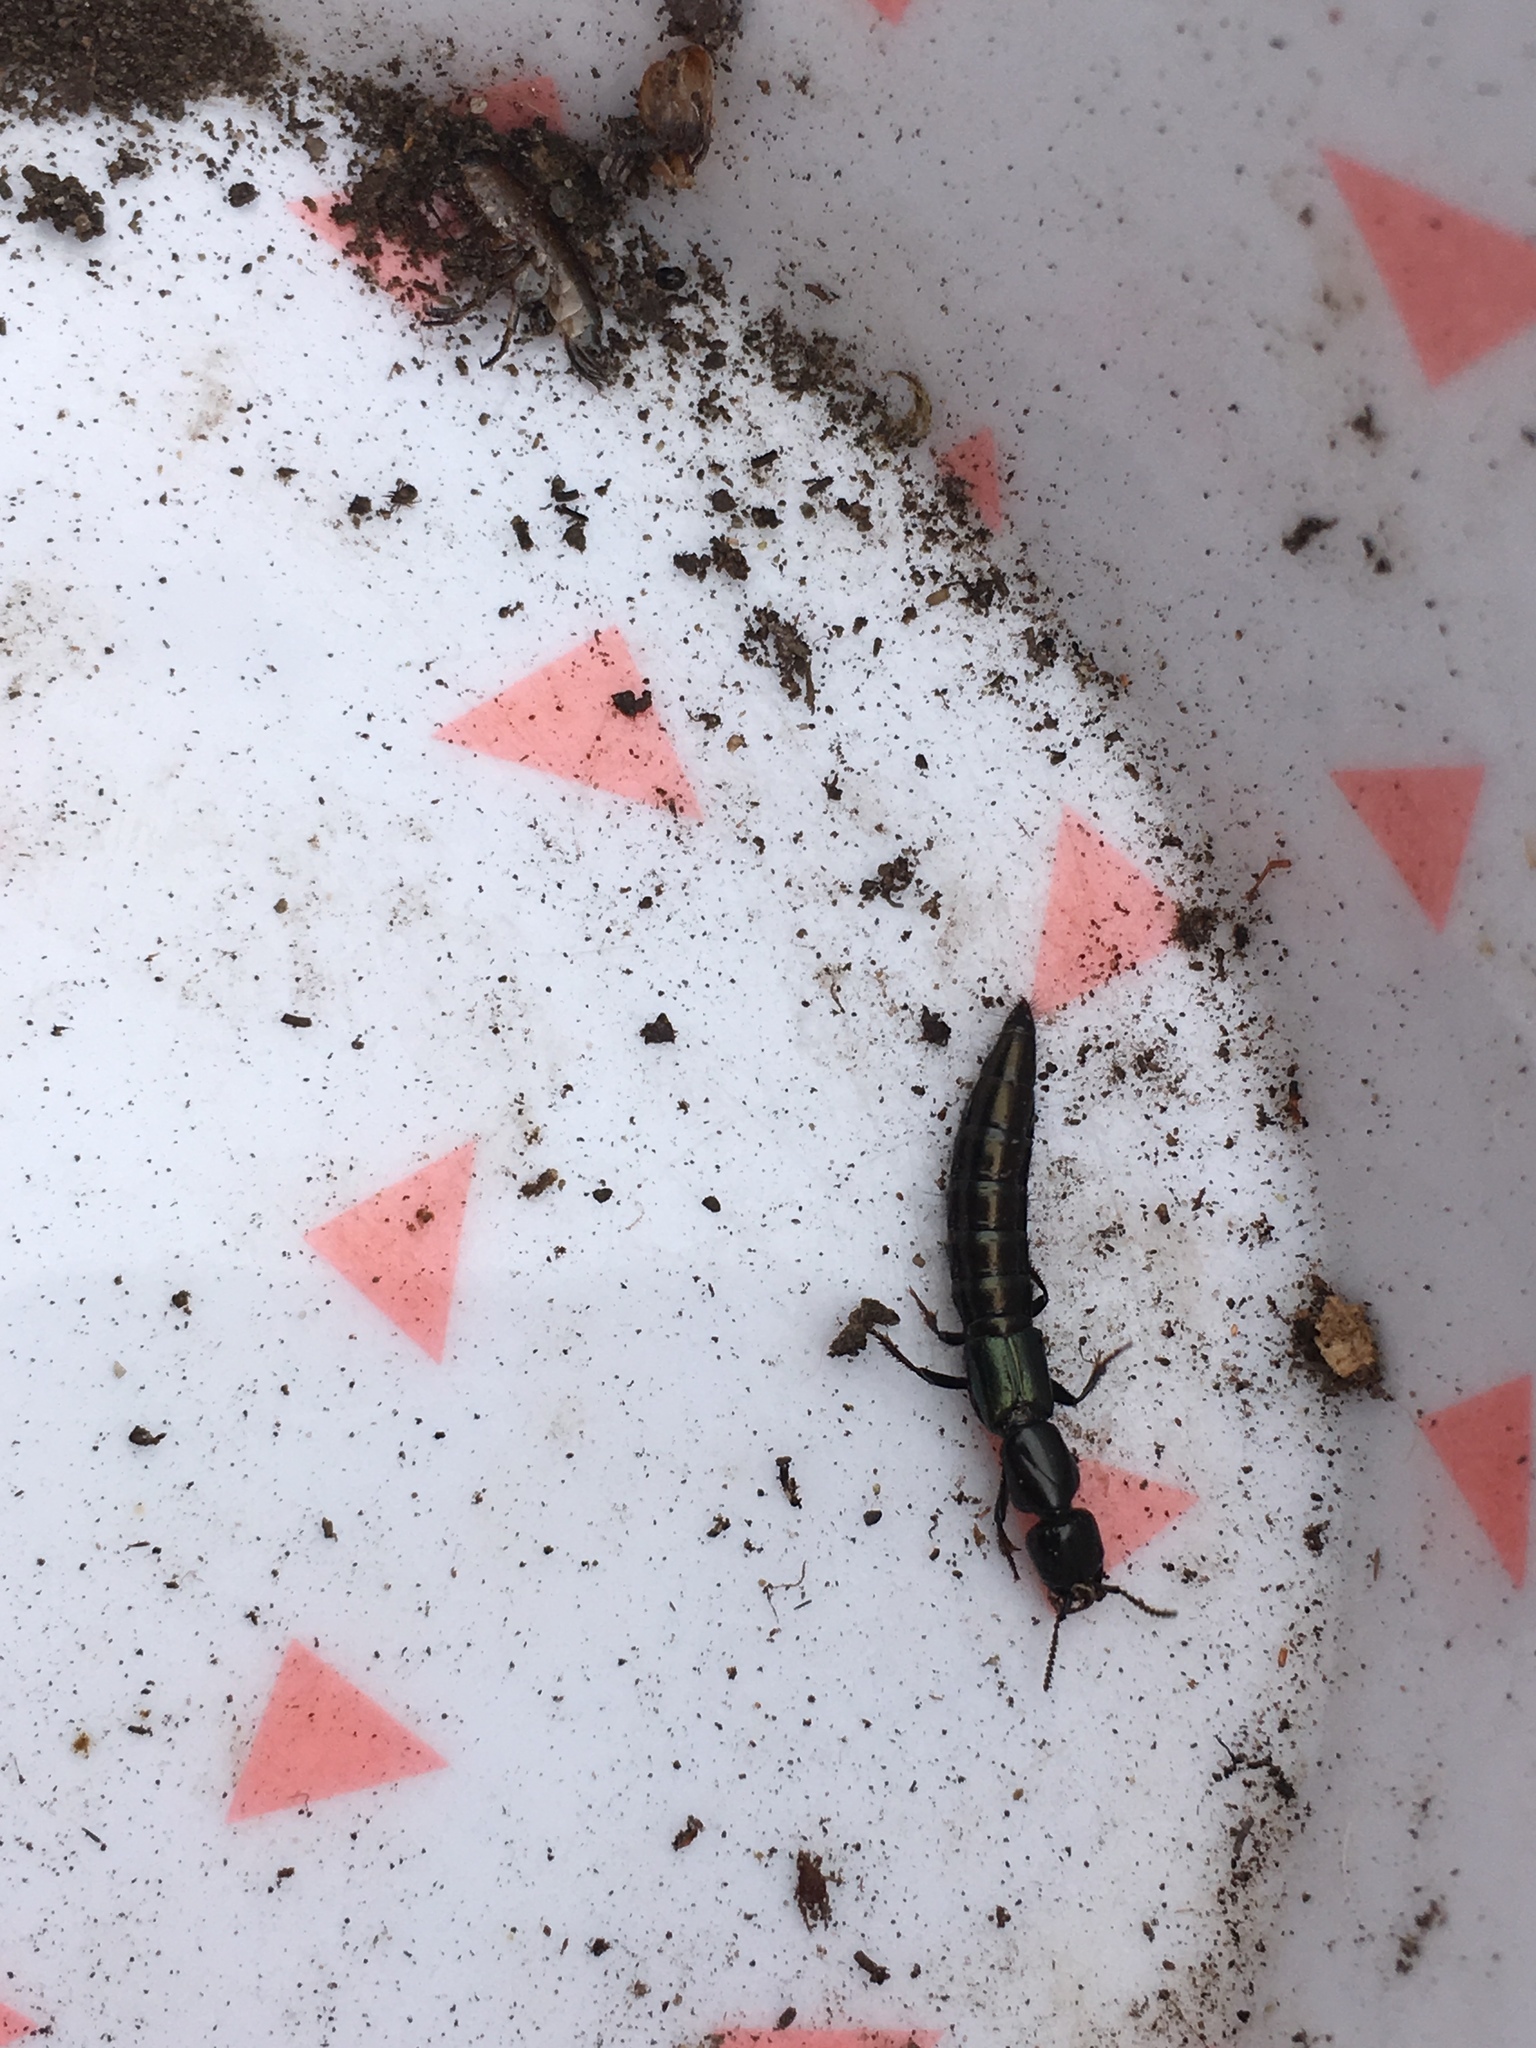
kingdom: Animalia
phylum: Arthropoda
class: Insecta
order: Coleoptera
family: Staphylinidae
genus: Thyreocephalus
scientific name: Thyreocephalus orthodoxus
